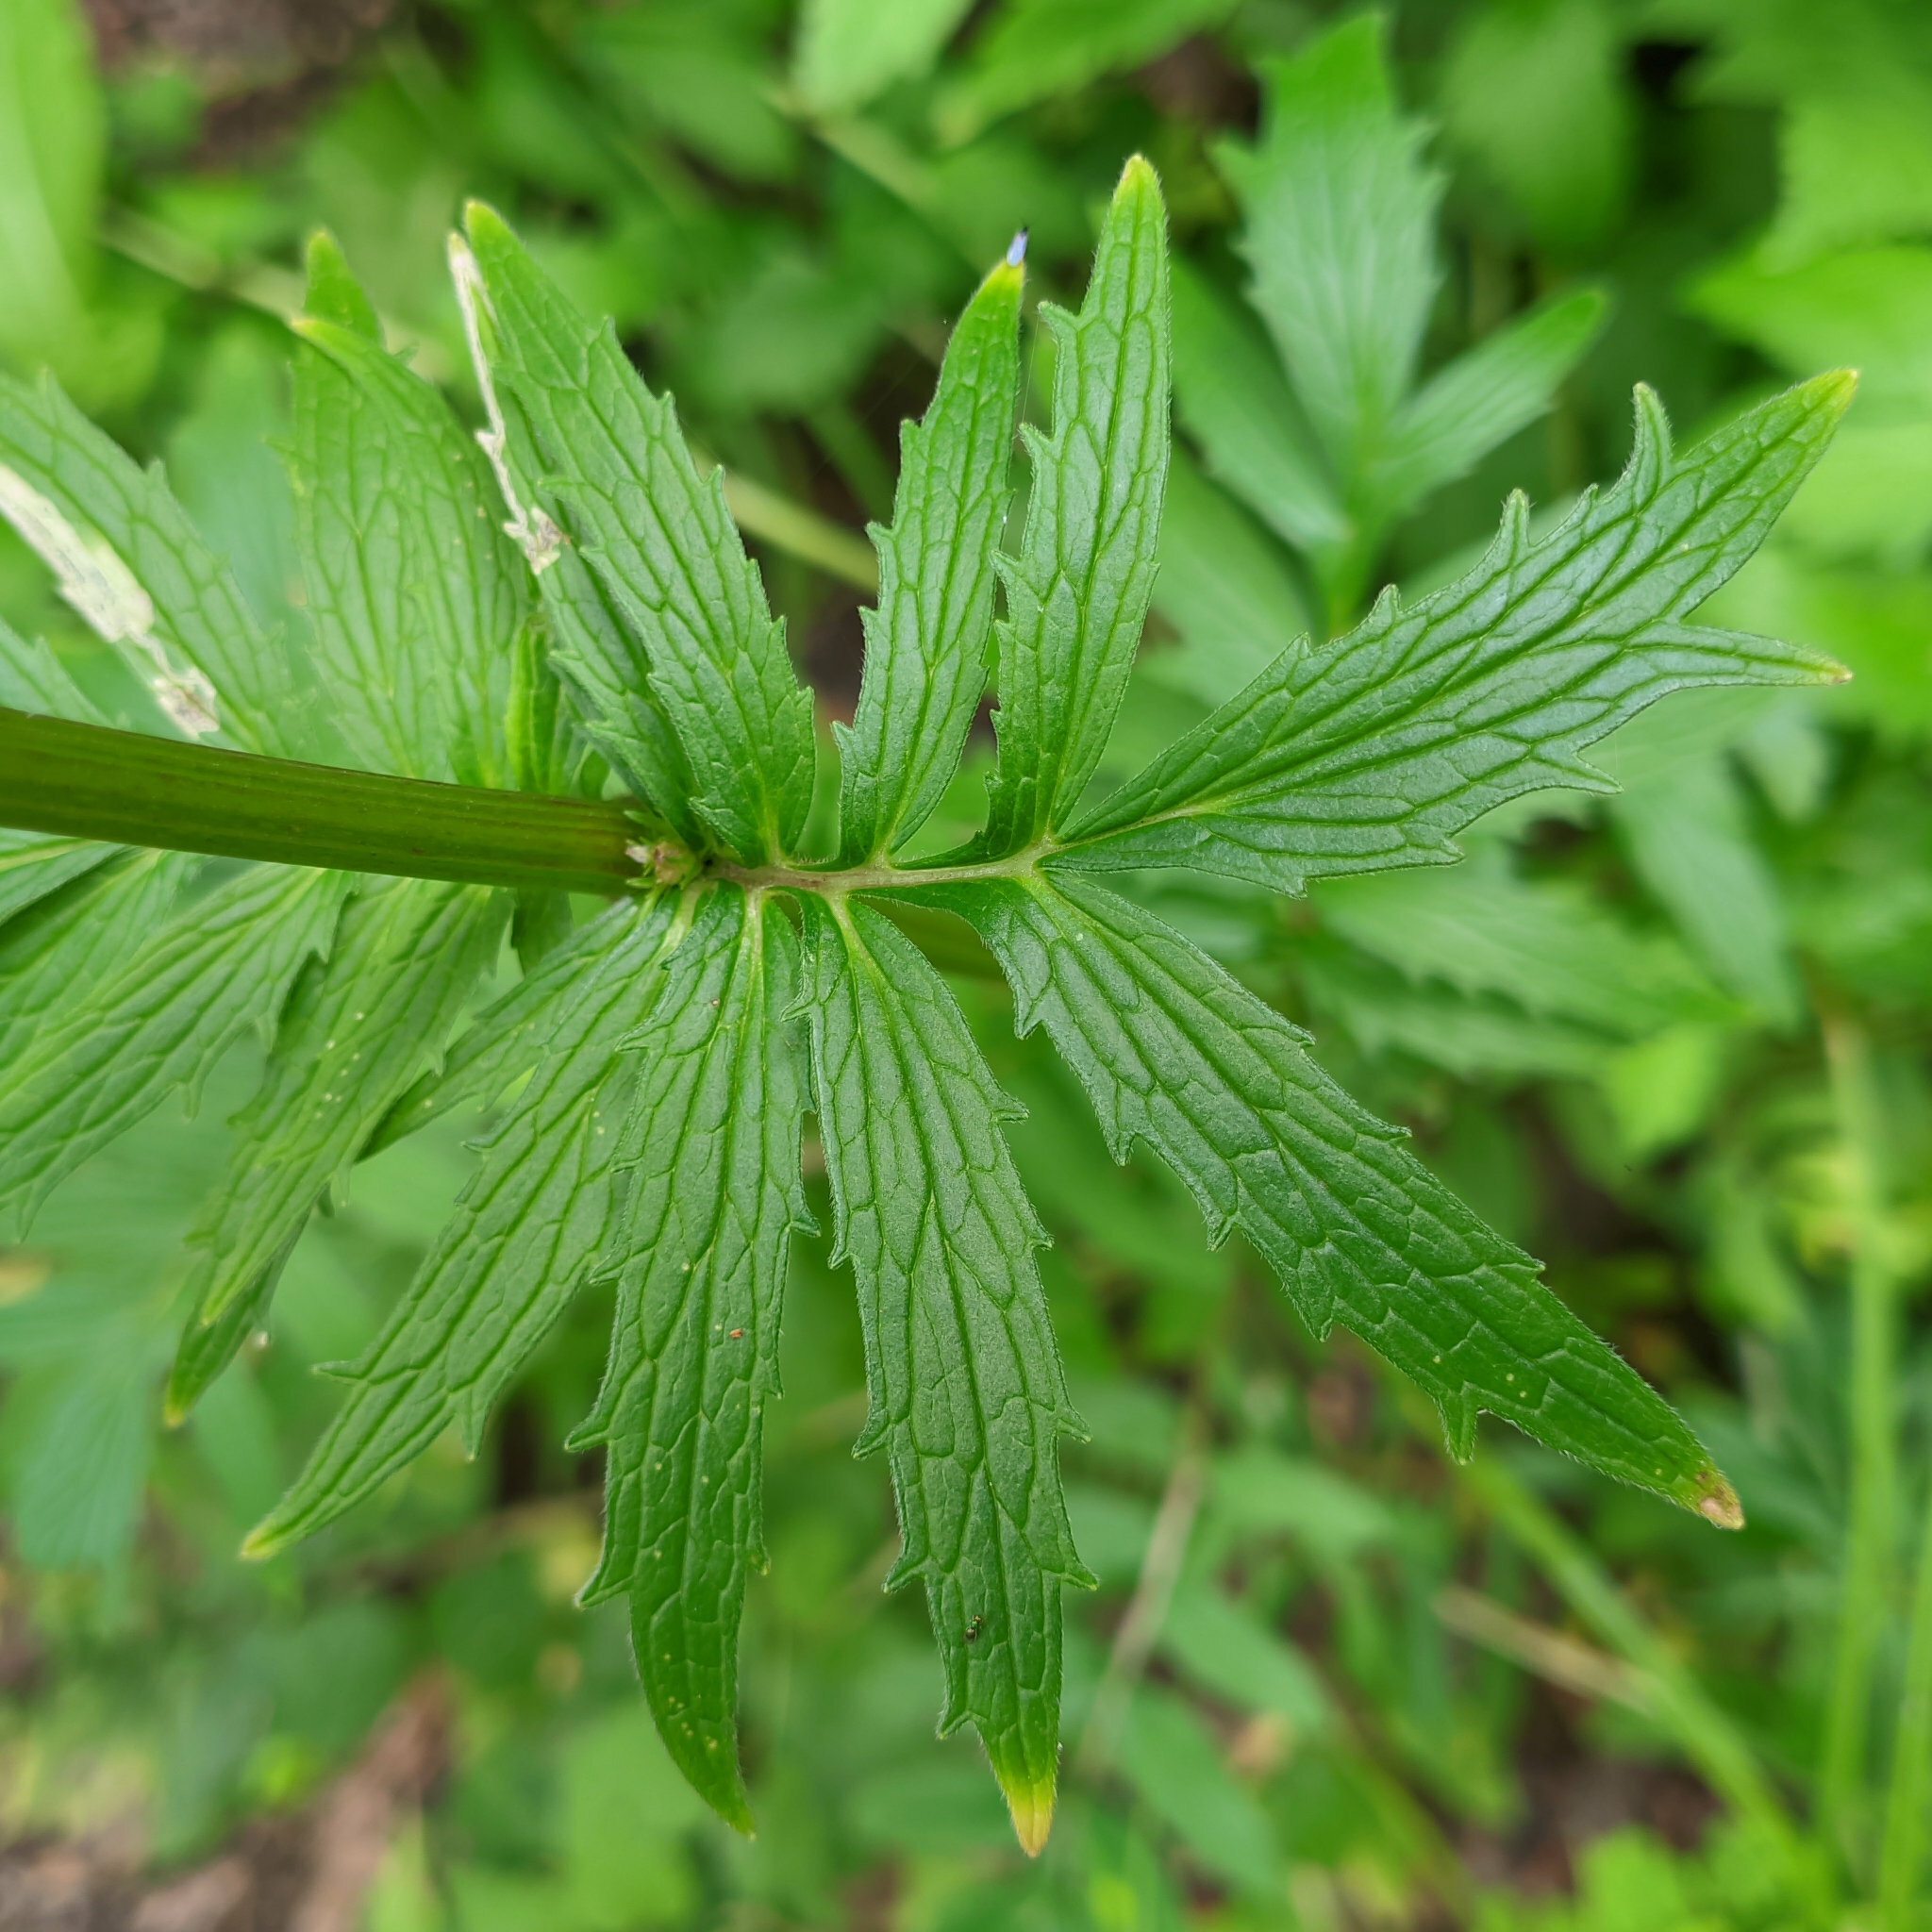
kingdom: Plantae
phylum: Tracheophyta
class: Magnoliopsida
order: Dipsacales
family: Caprifoliaceae
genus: Valeriana
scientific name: Valeriana officinalis
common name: Common valerian
